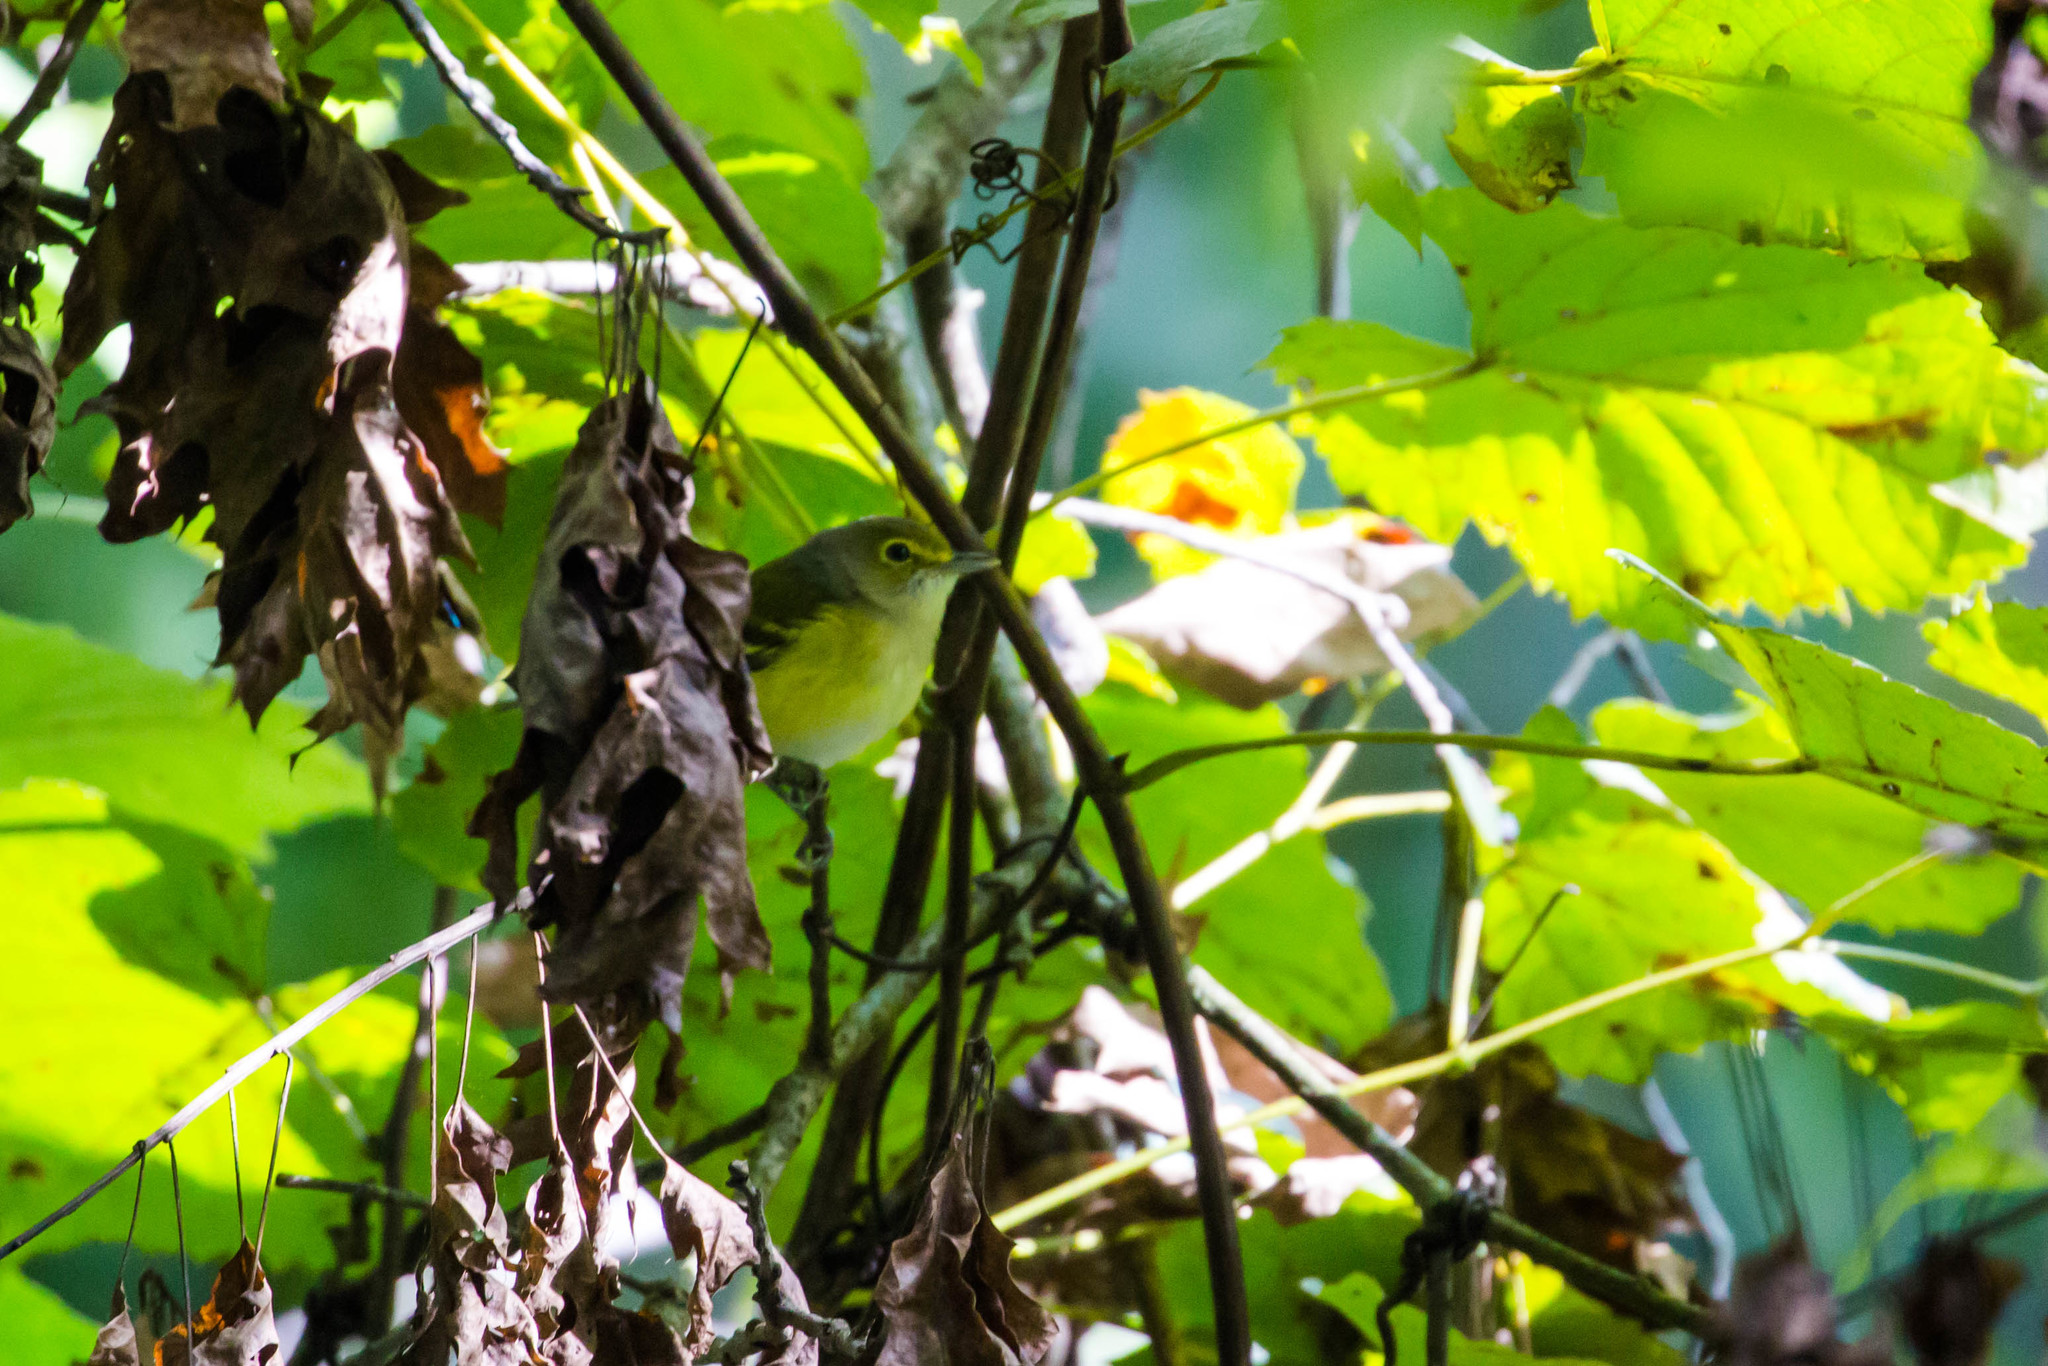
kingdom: Animalia
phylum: Chordata
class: Aves
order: Passeriformes
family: Vireonidae
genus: Vireo
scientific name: Vireo griseus
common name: White-eyed vireo
